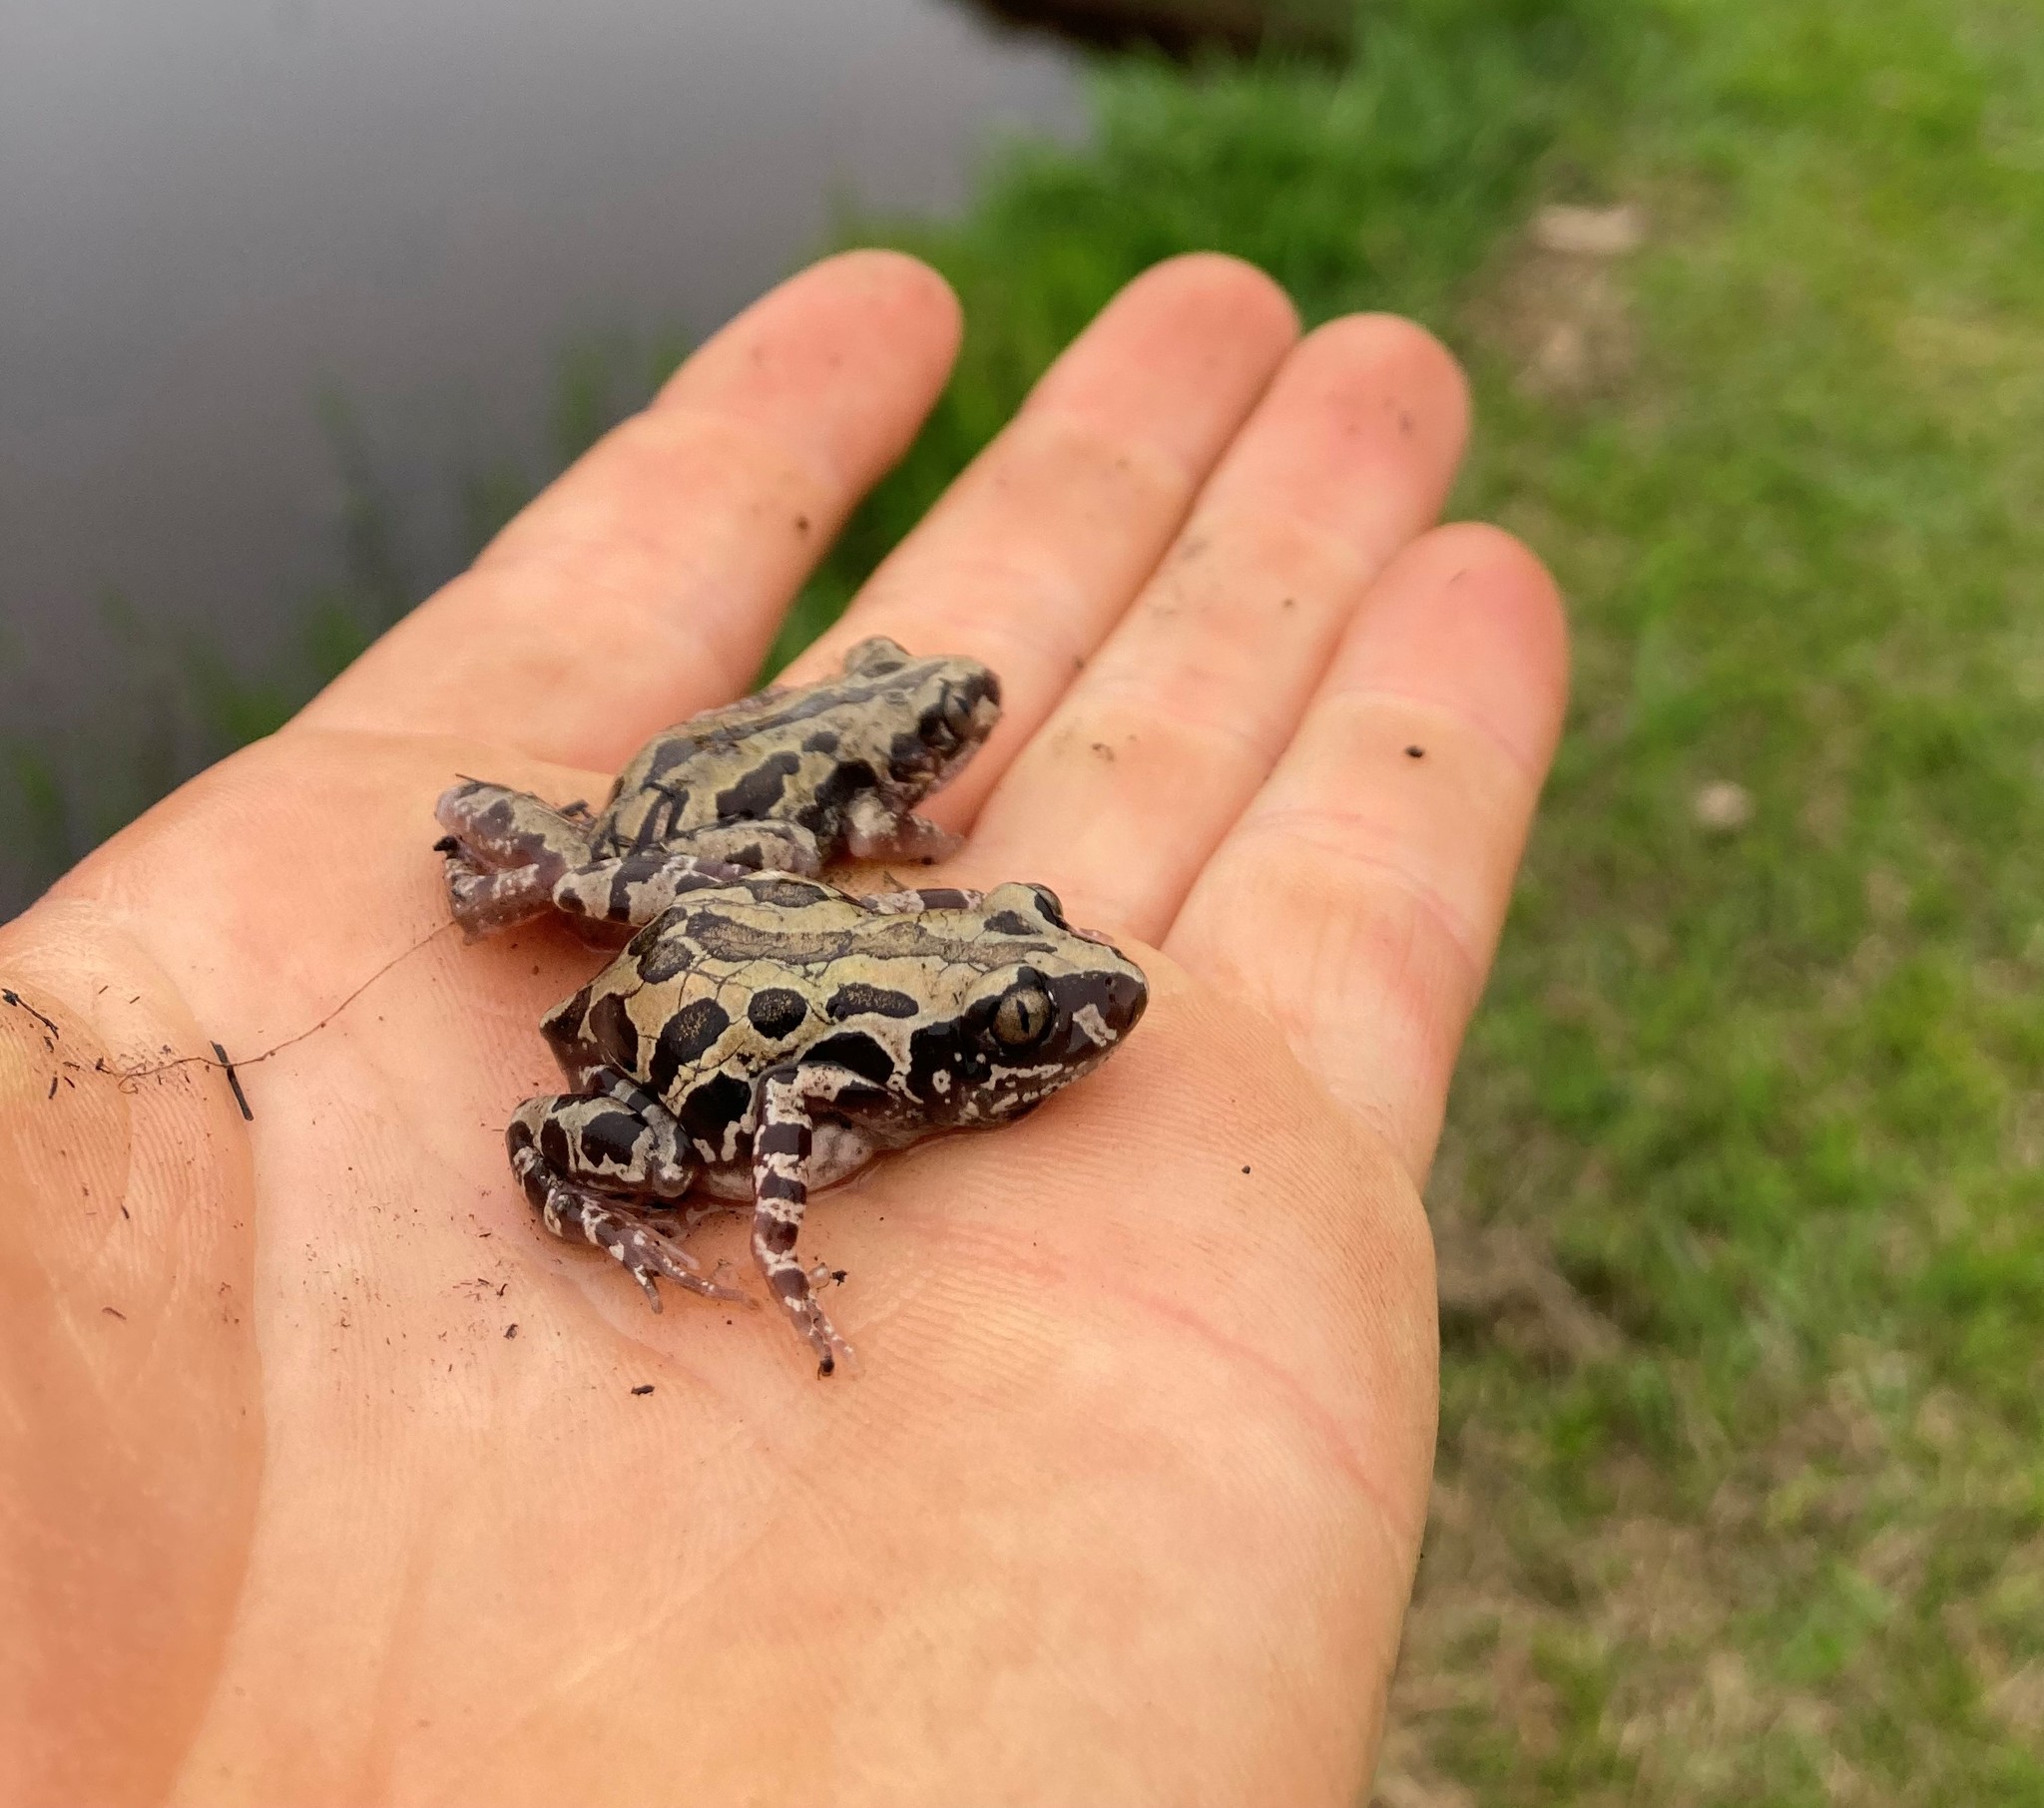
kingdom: Animalia
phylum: Chordata
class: Amphibia
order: Anura
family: Hyperoliidae
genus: Kassina
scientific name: Kassina senegalensis
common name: Senegal land frog
